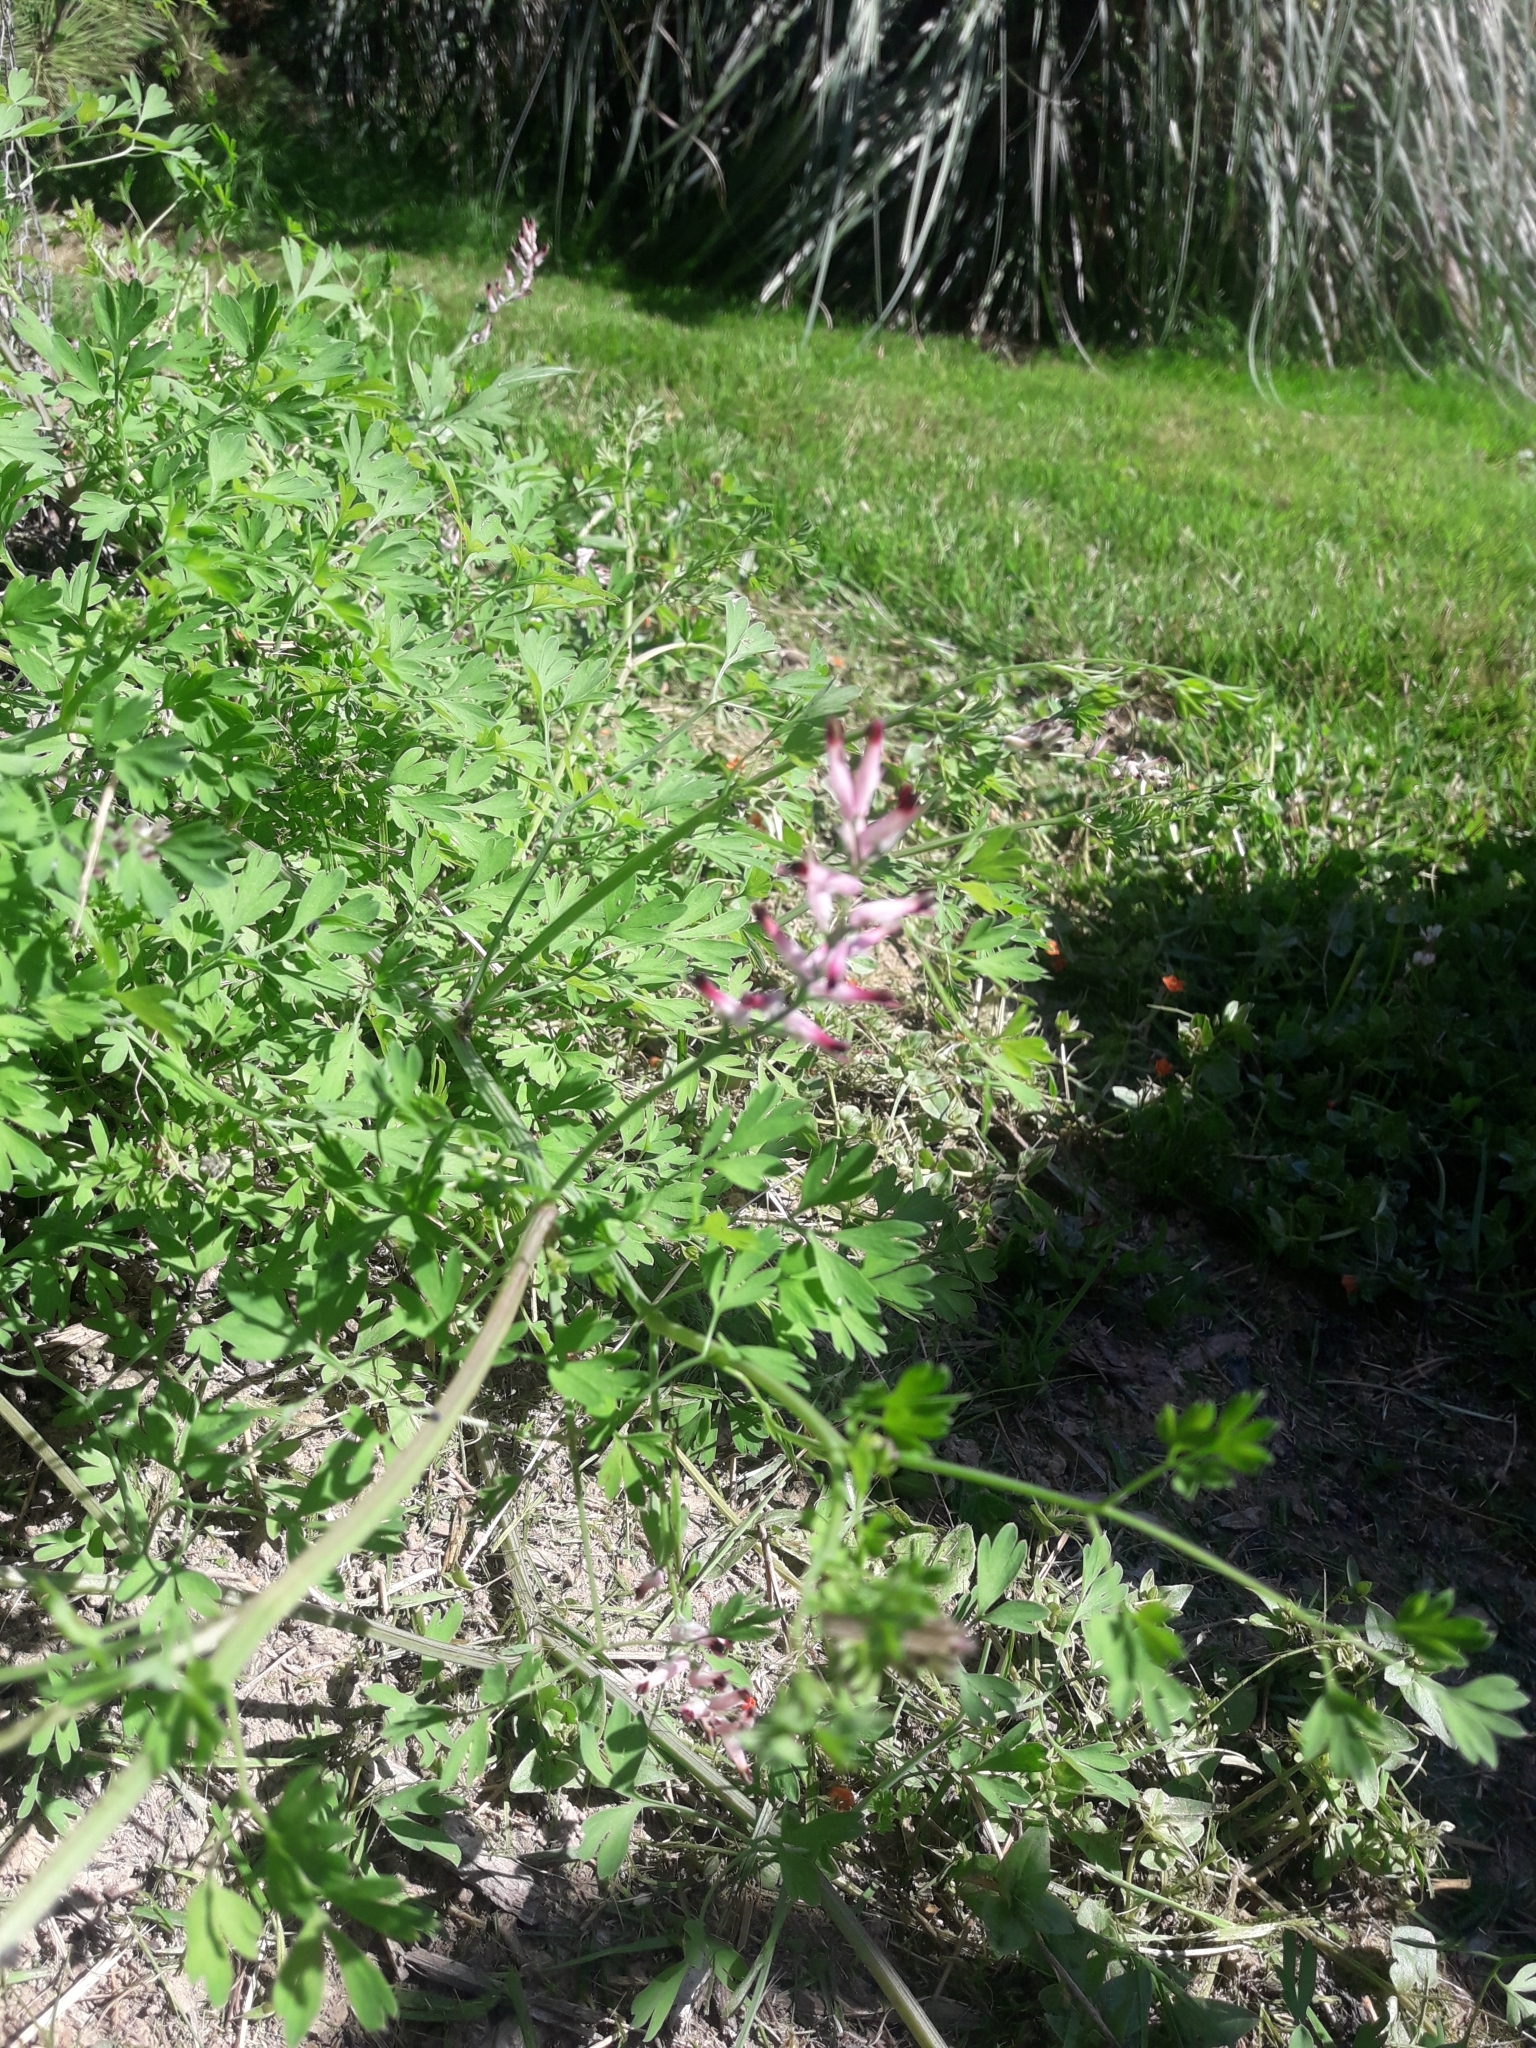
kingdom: Plantae
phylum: Tracheophyta
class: Magnoliopsida
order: Ranunculales
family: Papaveraceae
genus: Fumaria
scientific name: Fumaria officinalis
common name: Common fumitory
